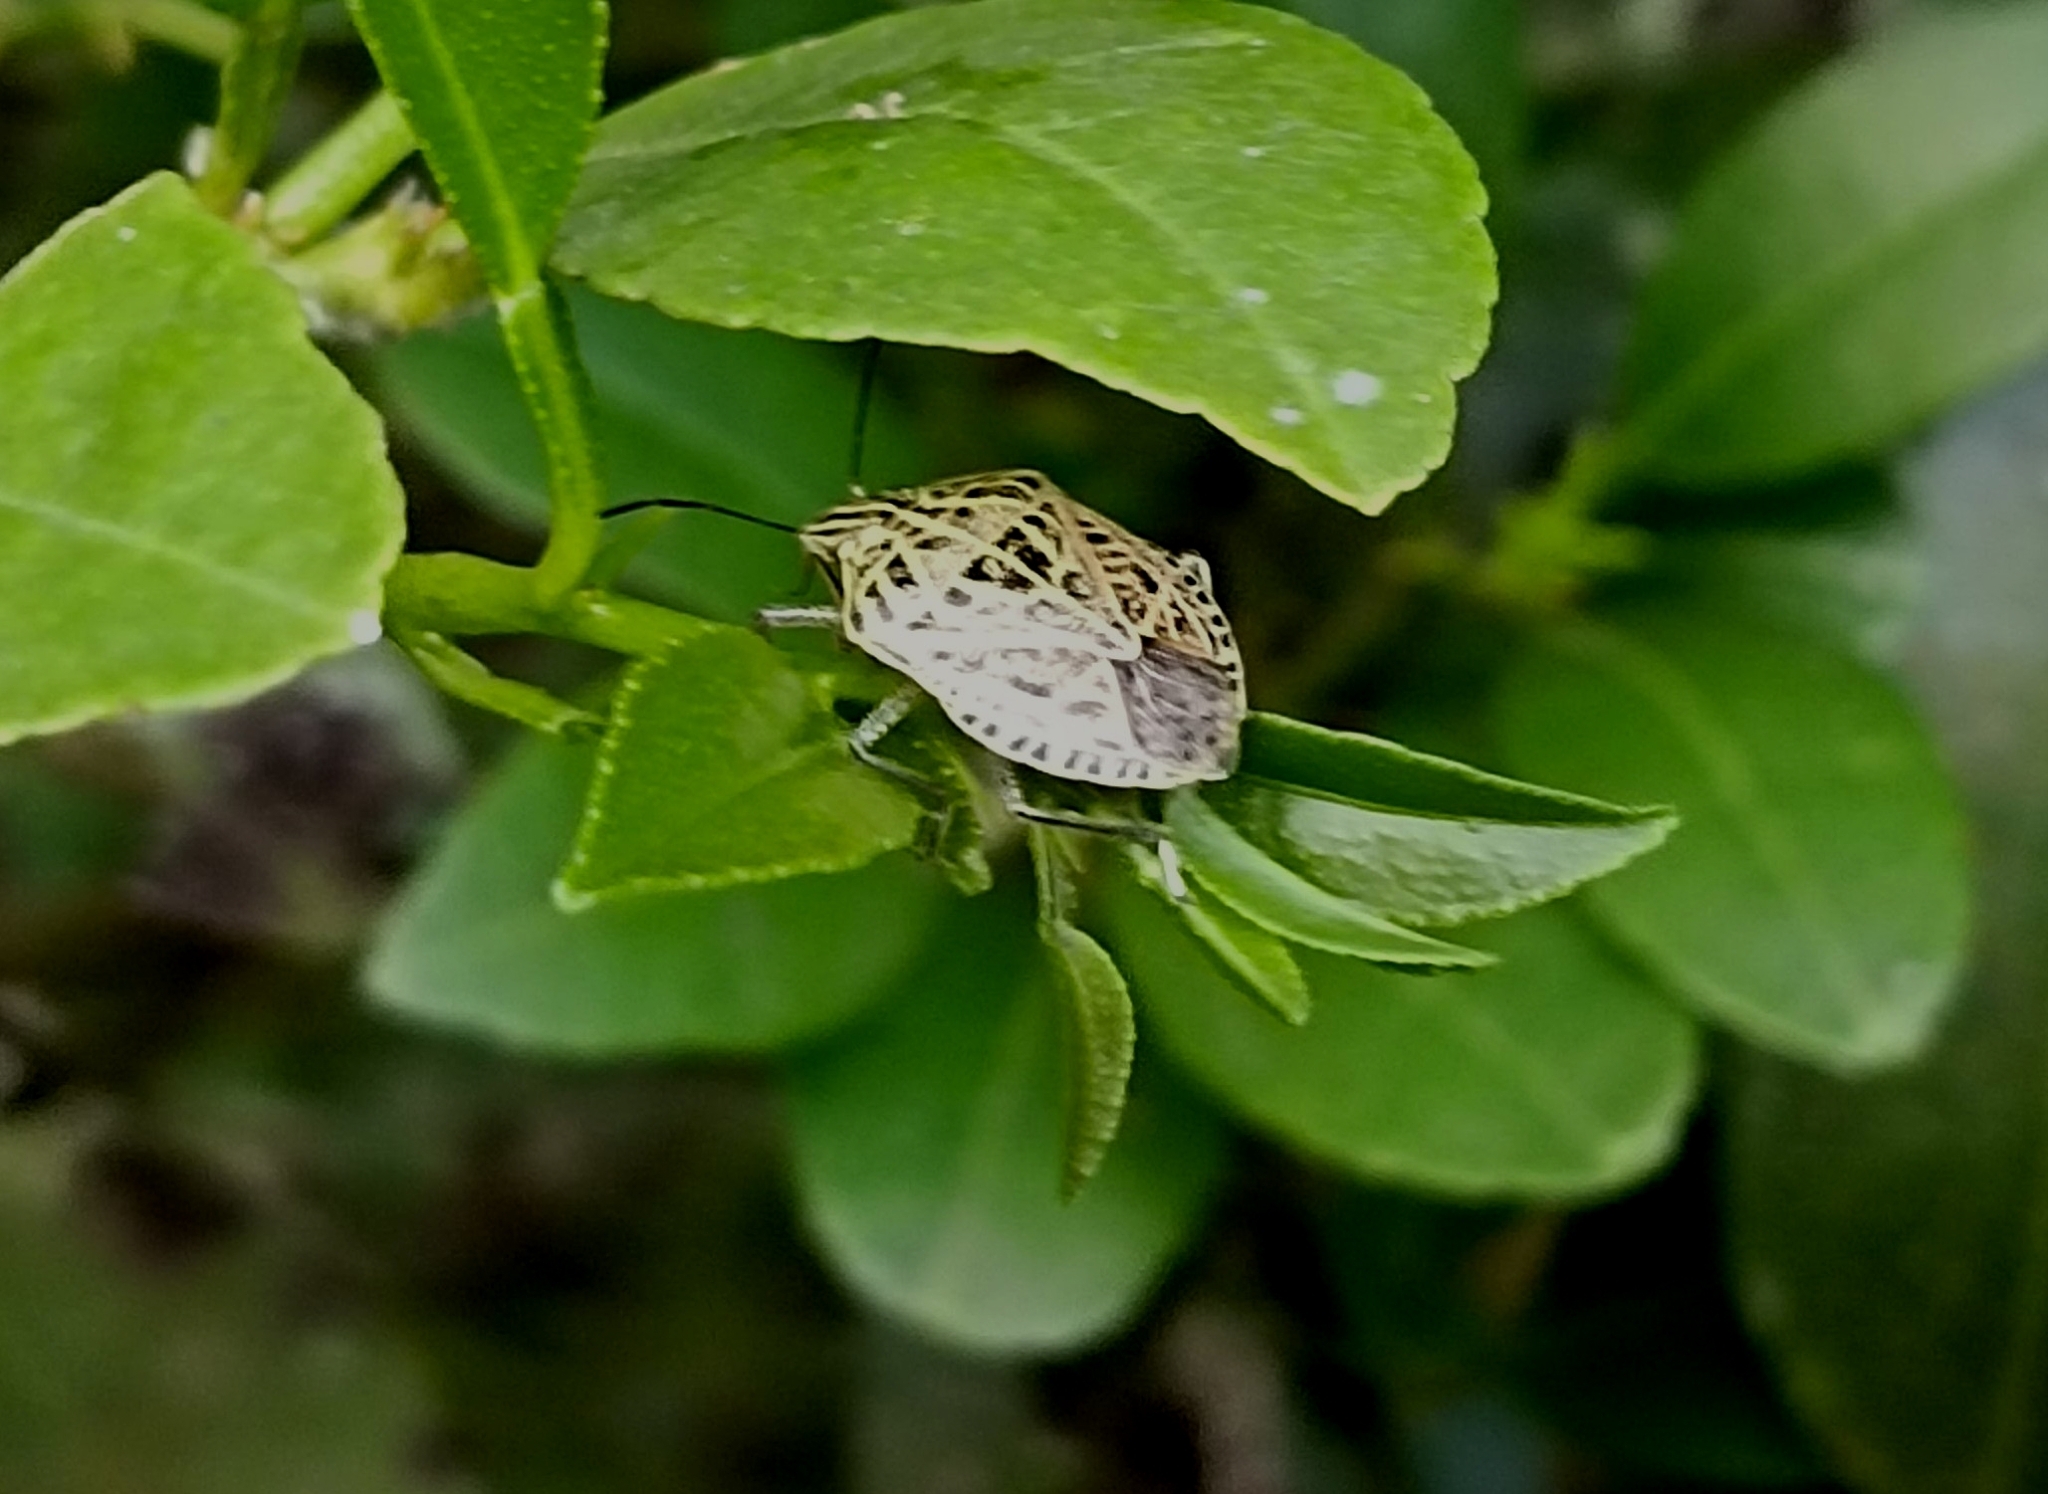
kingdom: Animalia
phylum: Arthropoda
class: Insecta
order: Hemiptera
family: Pentatomidae
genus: Cappaea
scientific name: Cappaea taprobanensis
